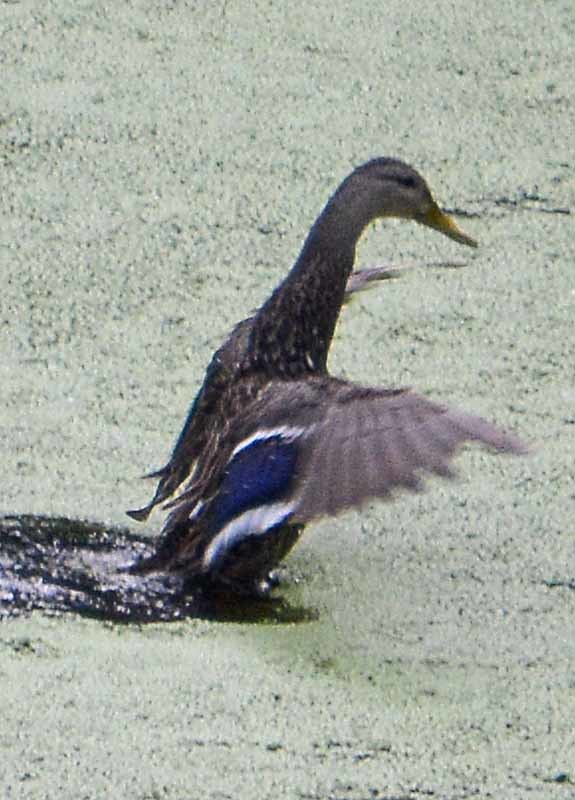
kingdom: Animalia
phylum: Chordata
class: Aves
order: Anseriformes
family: Anatidae
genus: Anas
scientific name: Anas diazi
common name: Mexican duck
